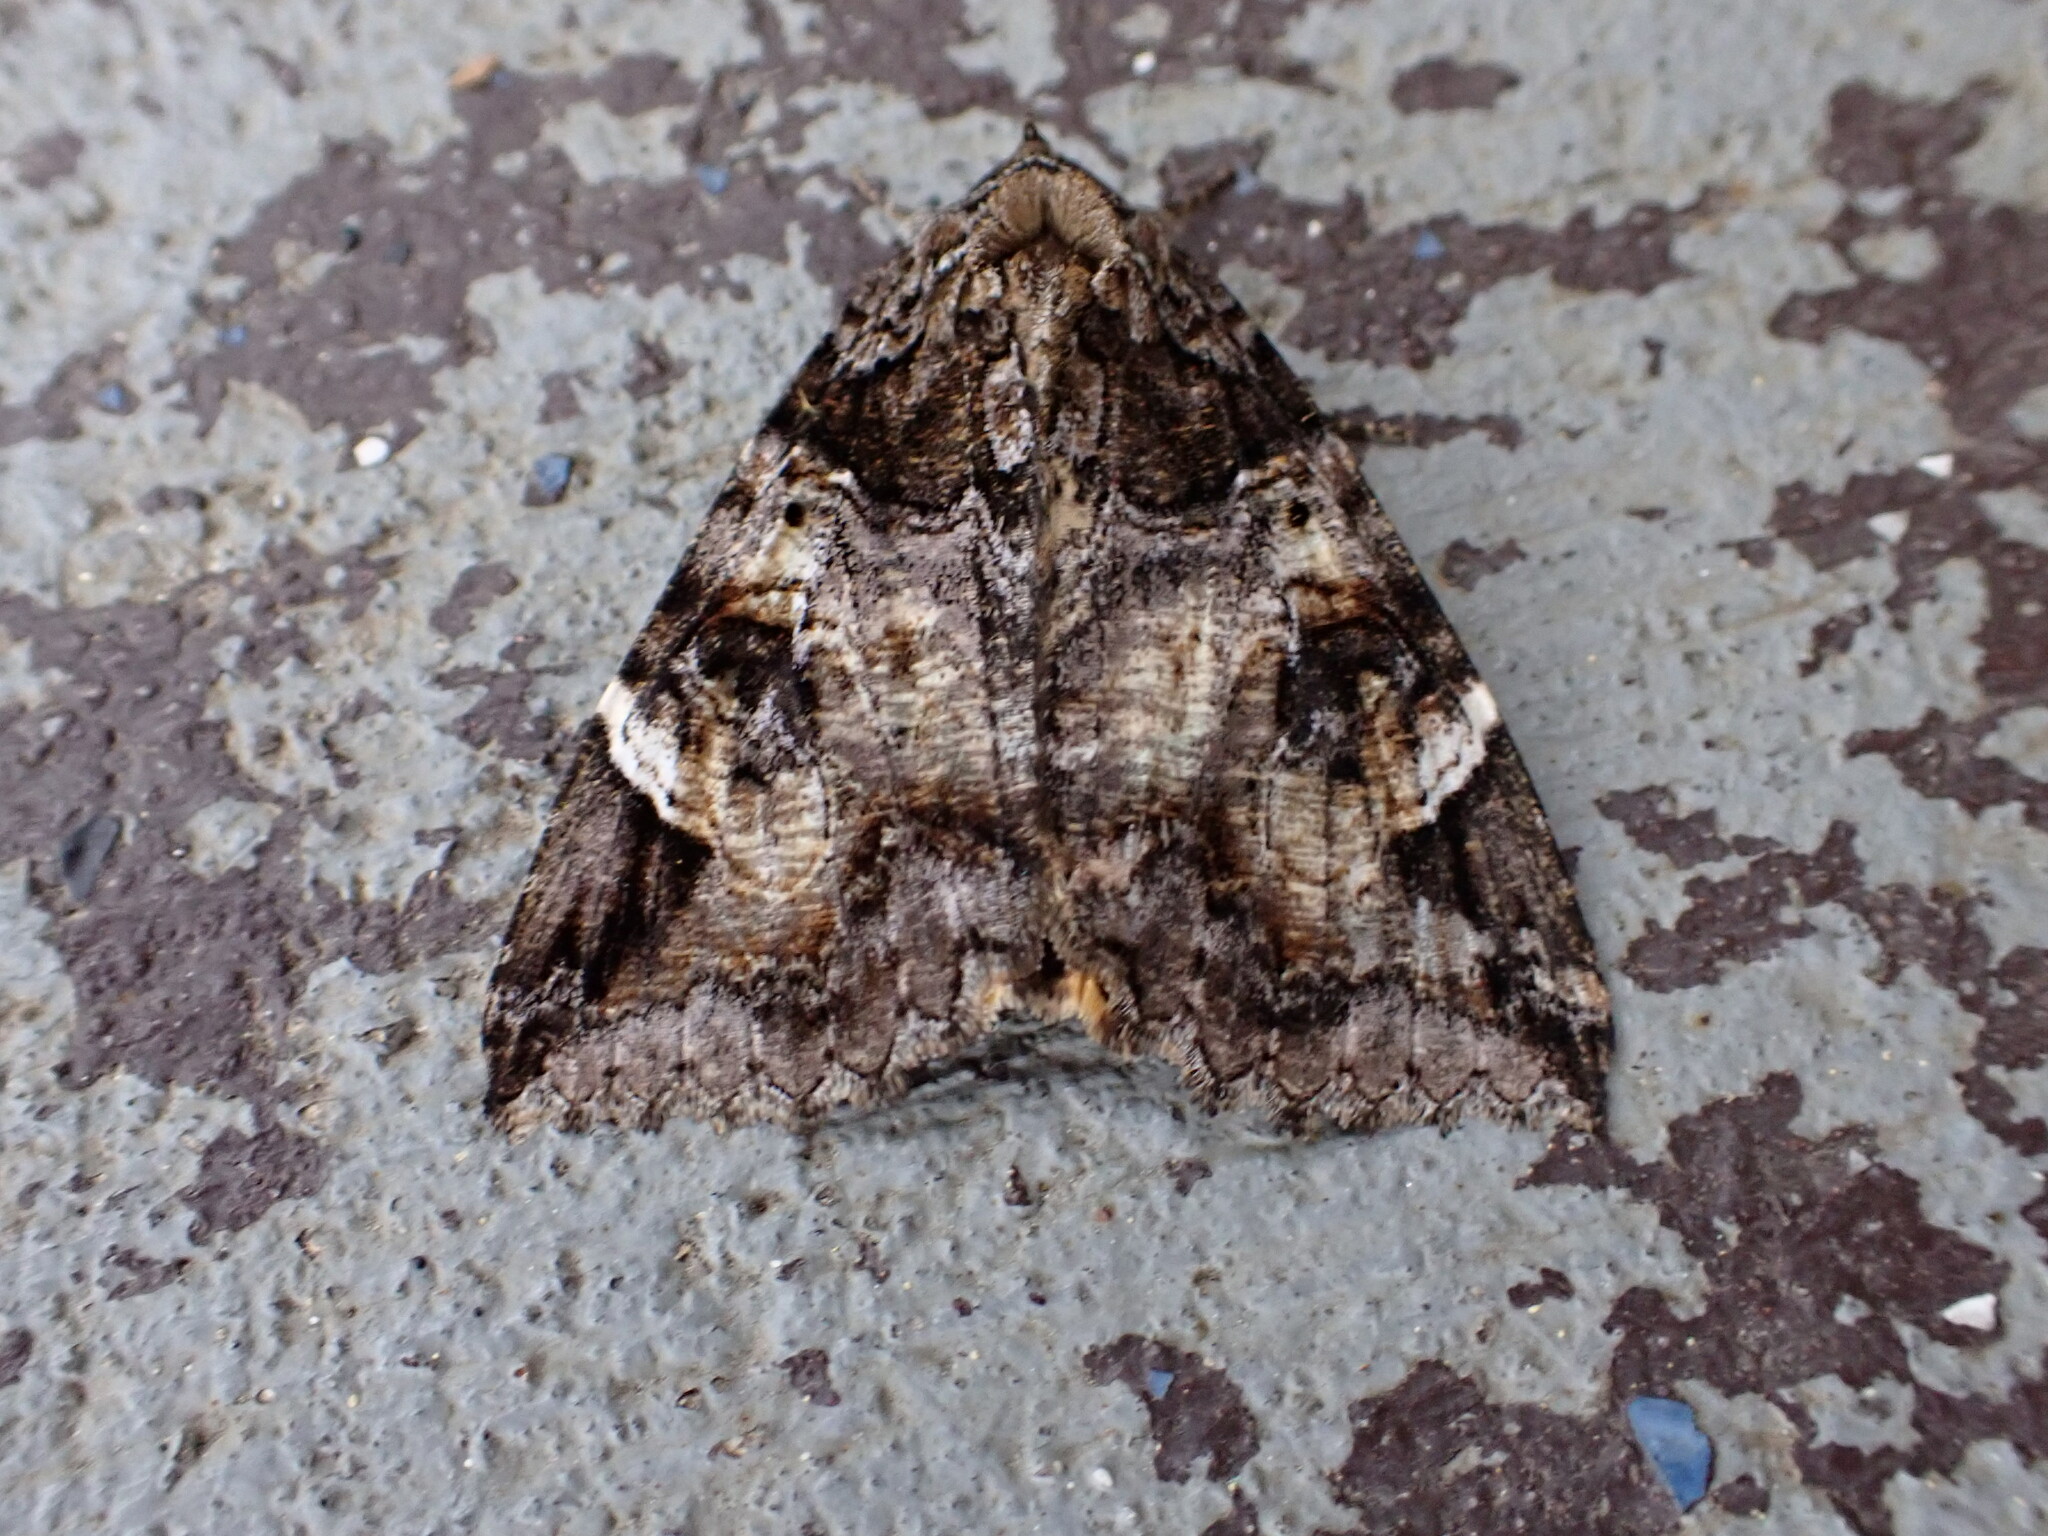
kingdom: Animalia
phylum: Arthropoda
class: Insecta
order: Lepidoptera
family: Erebidae
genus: Euparthenos
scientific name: Euparthenos nubilis
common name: Locust underwing
